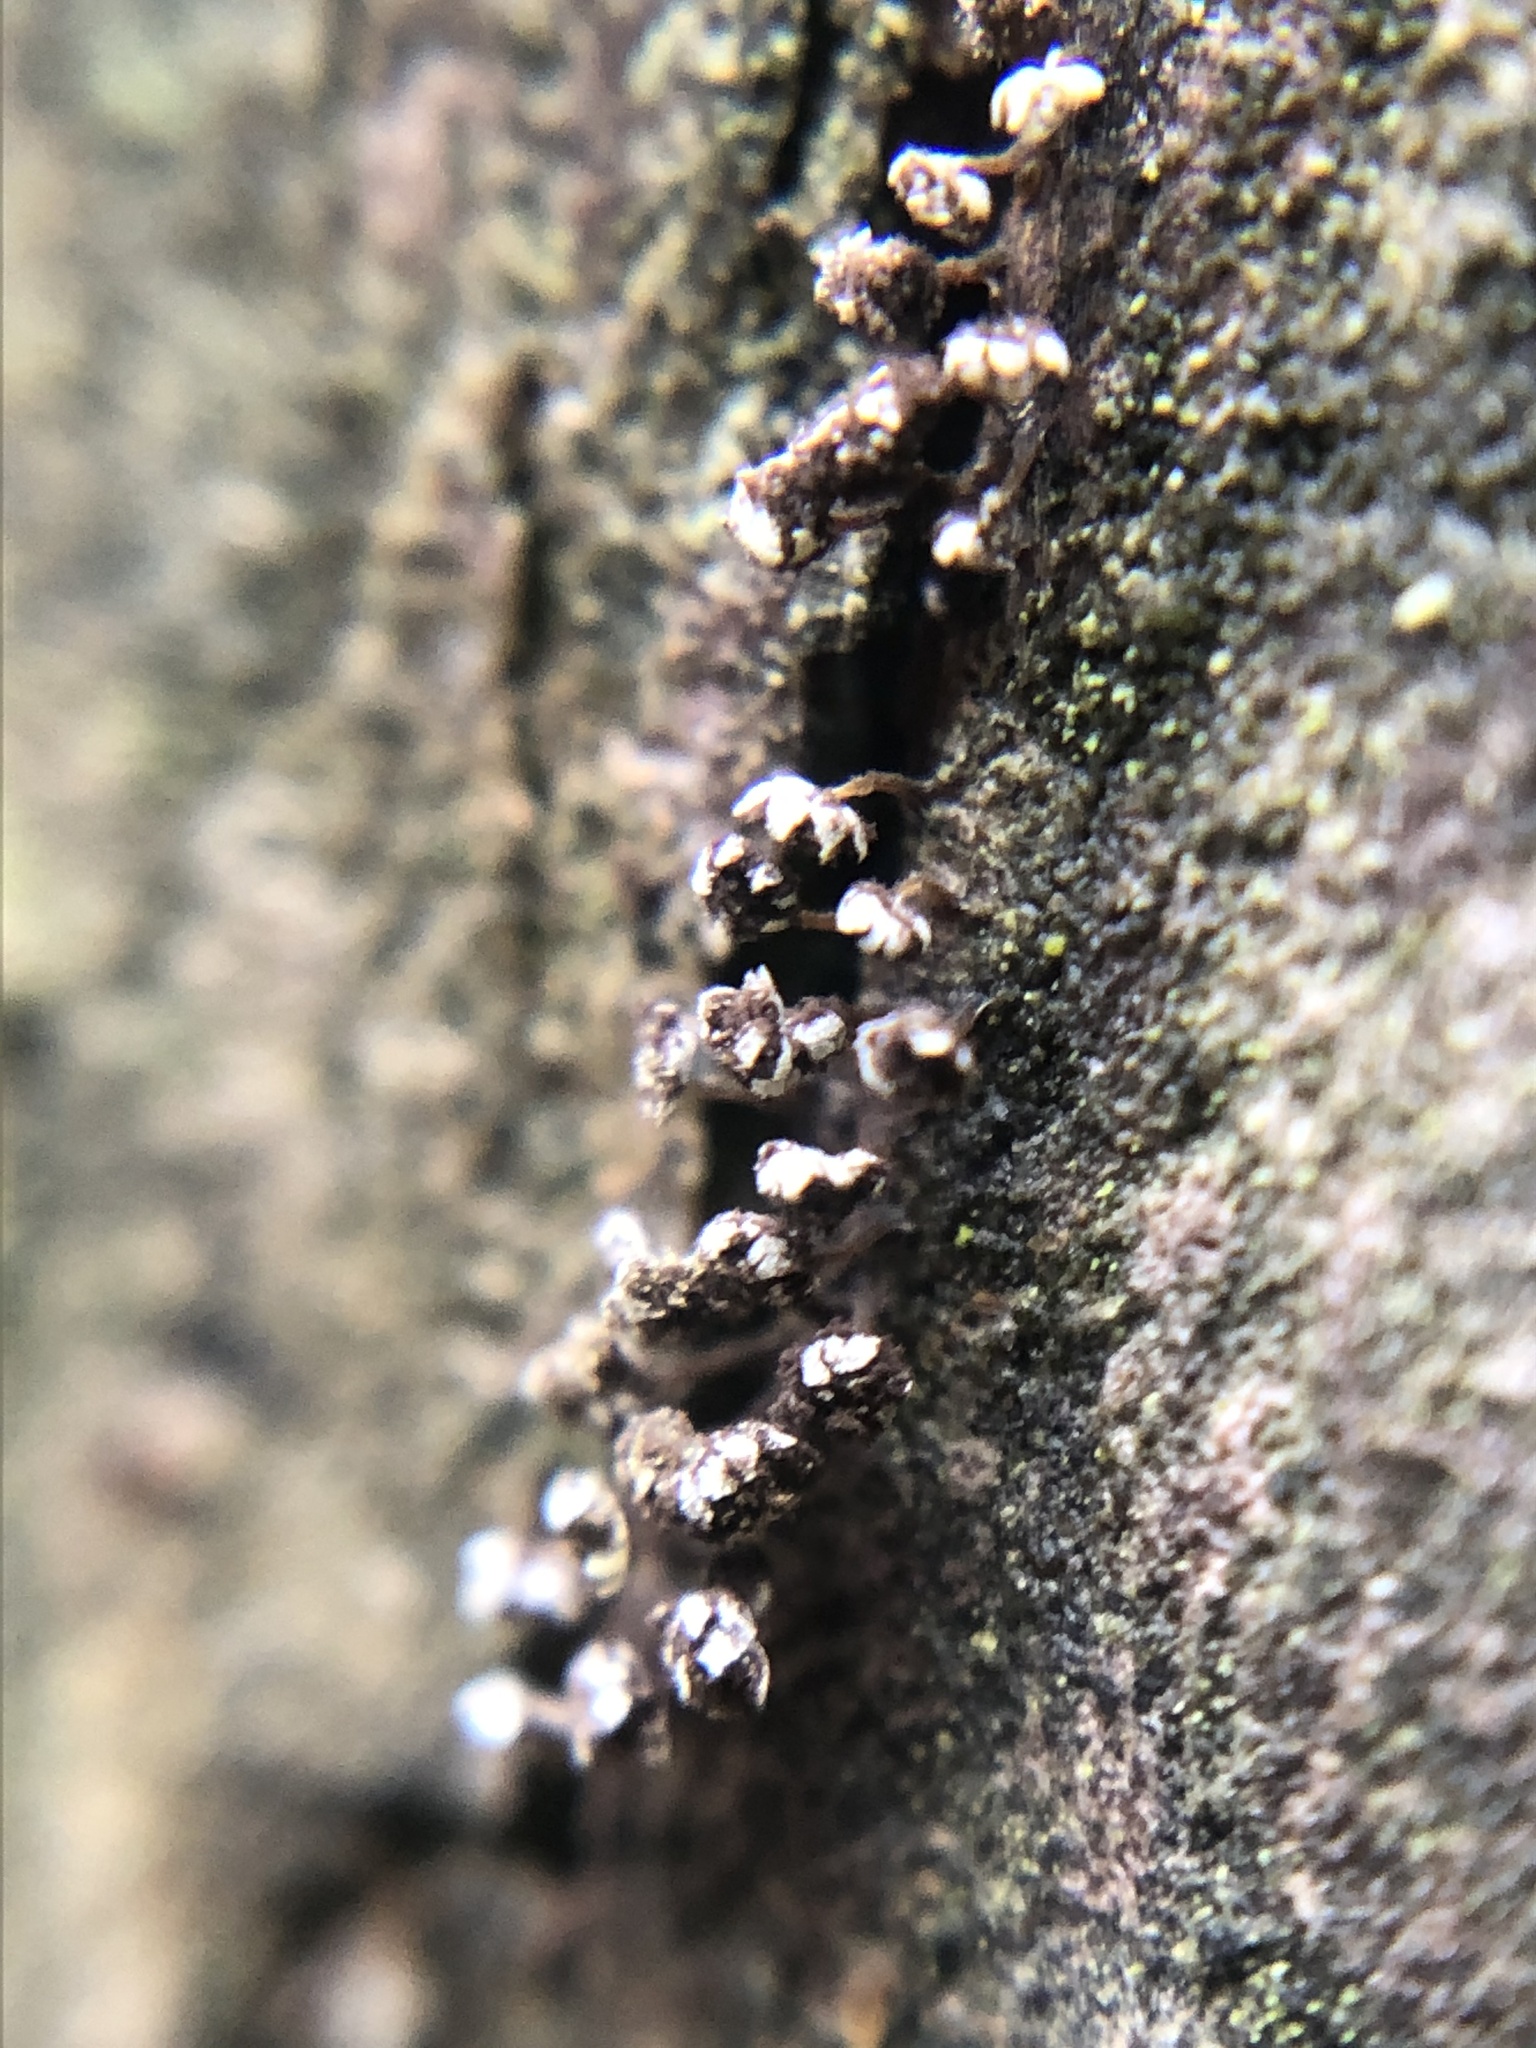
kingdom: Protozoa
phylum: Mycetozoa
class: Myxomycetes
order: Physarales
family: Physaraceae
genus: Physarum
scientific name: Physarum album
